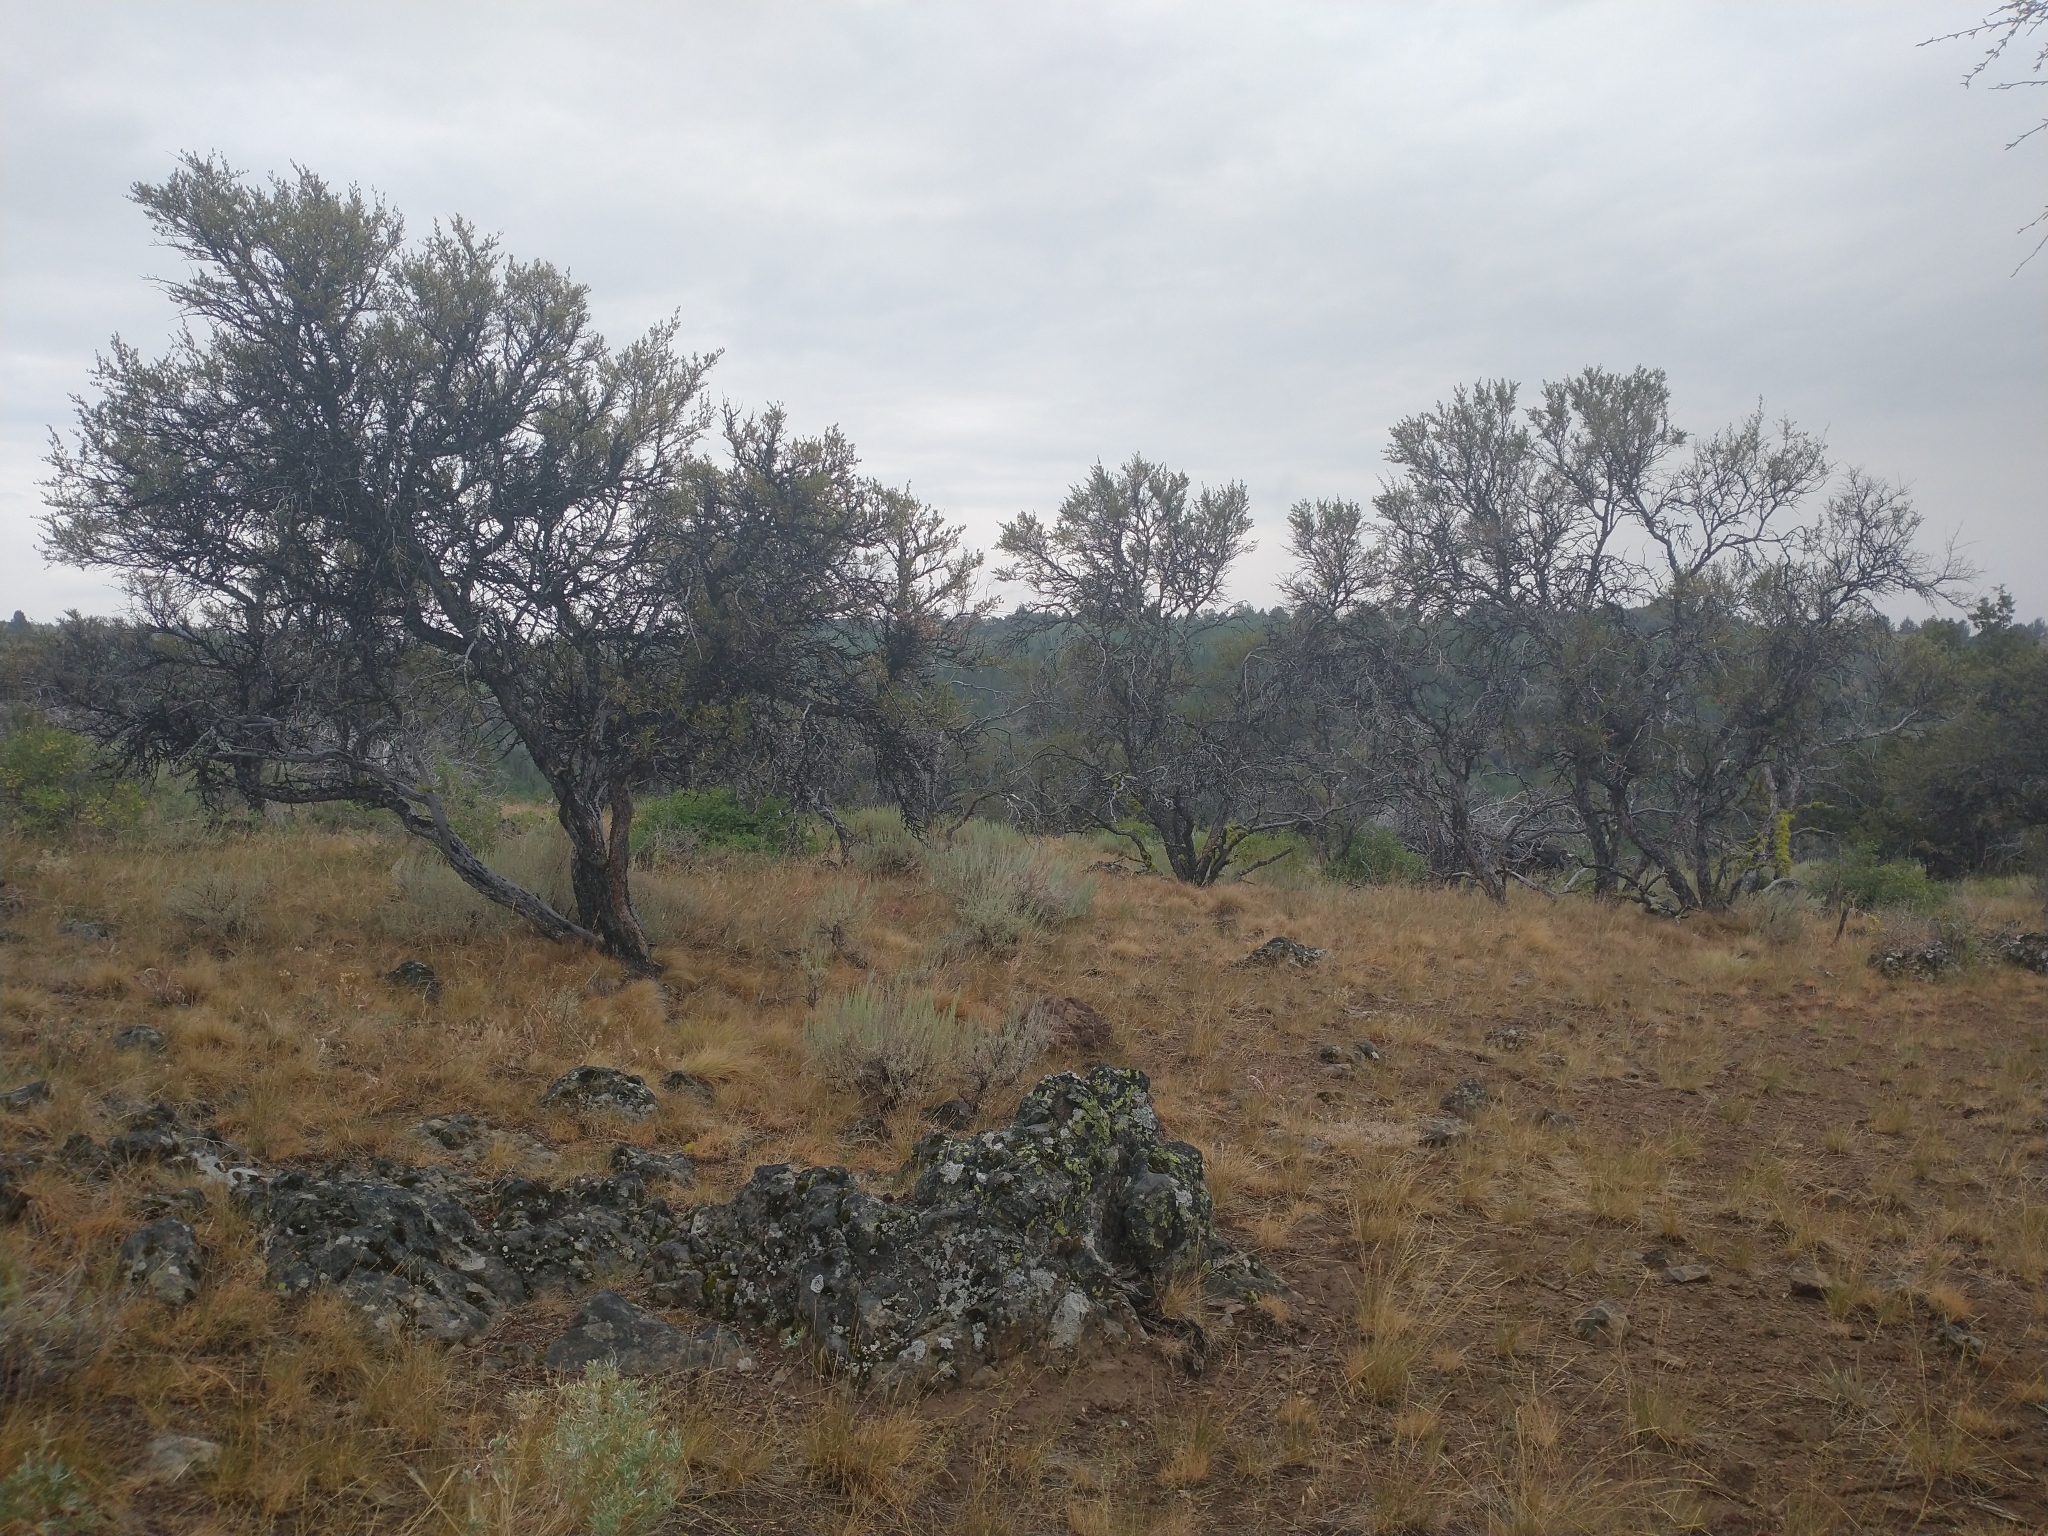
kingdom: Plantae
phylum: Tracheophyta
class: Magnoliopsida
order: Rosales
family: Rosaceae
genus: Cercocarpus
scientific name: Cercocarpus ledifolius
